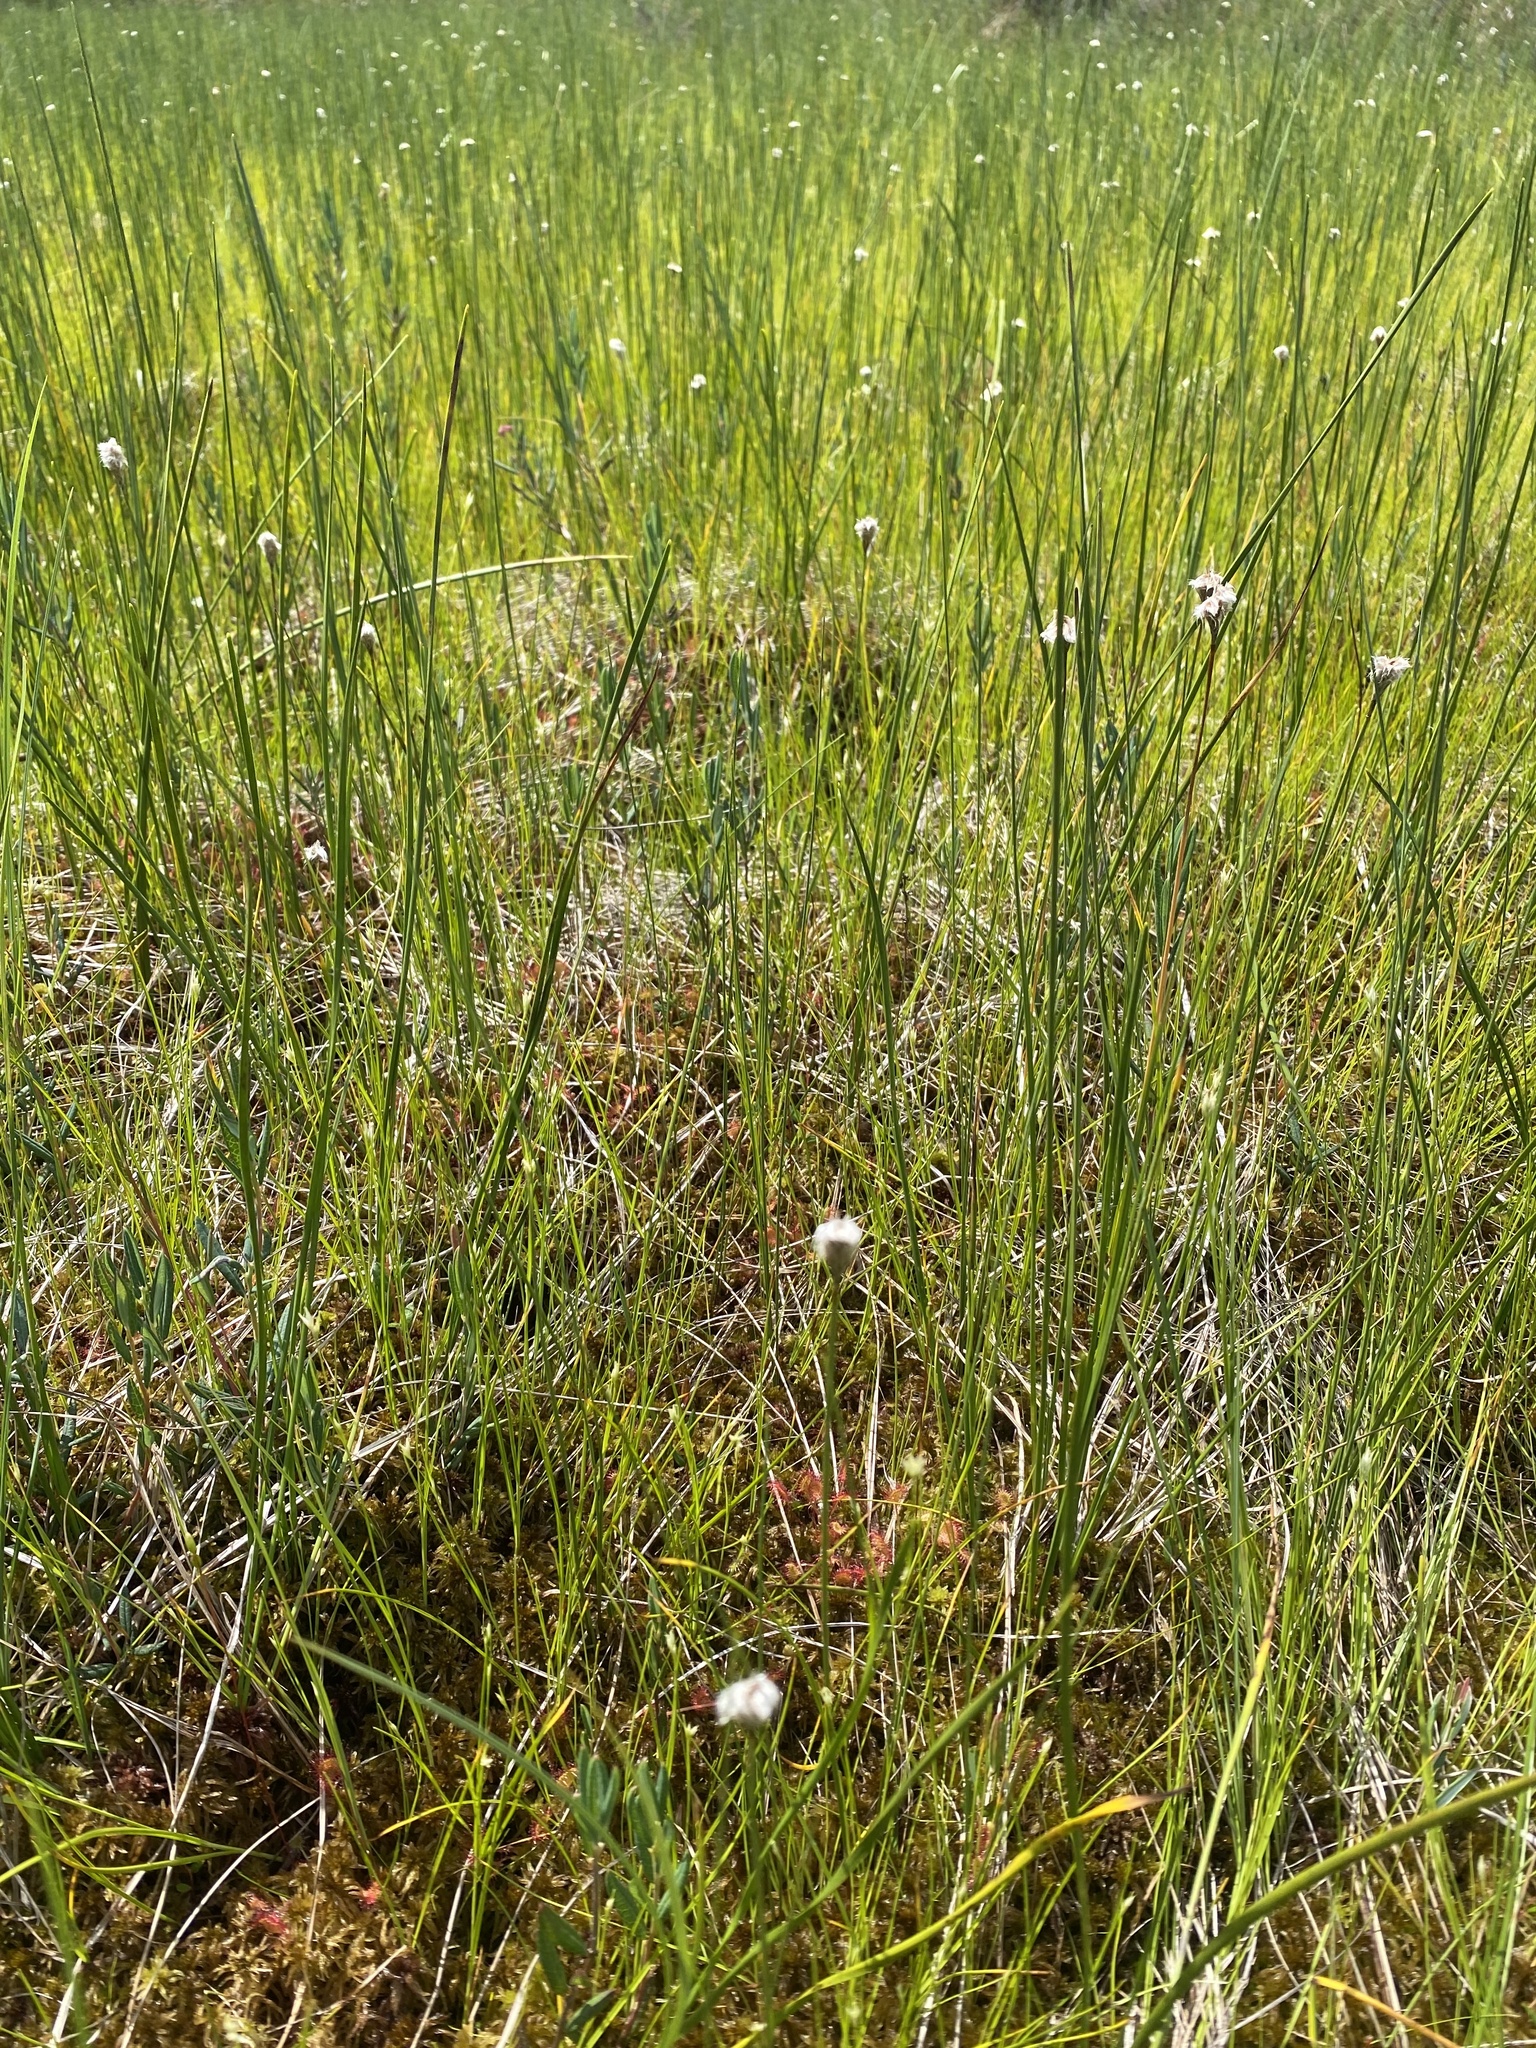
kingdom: Plantae
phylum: Tracheophyta
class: Liliopsida
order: Poales
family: Cyperaceae
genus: Eriophorum
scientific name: Eriophorum chamissonis
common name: Chamisso's cottongrass
